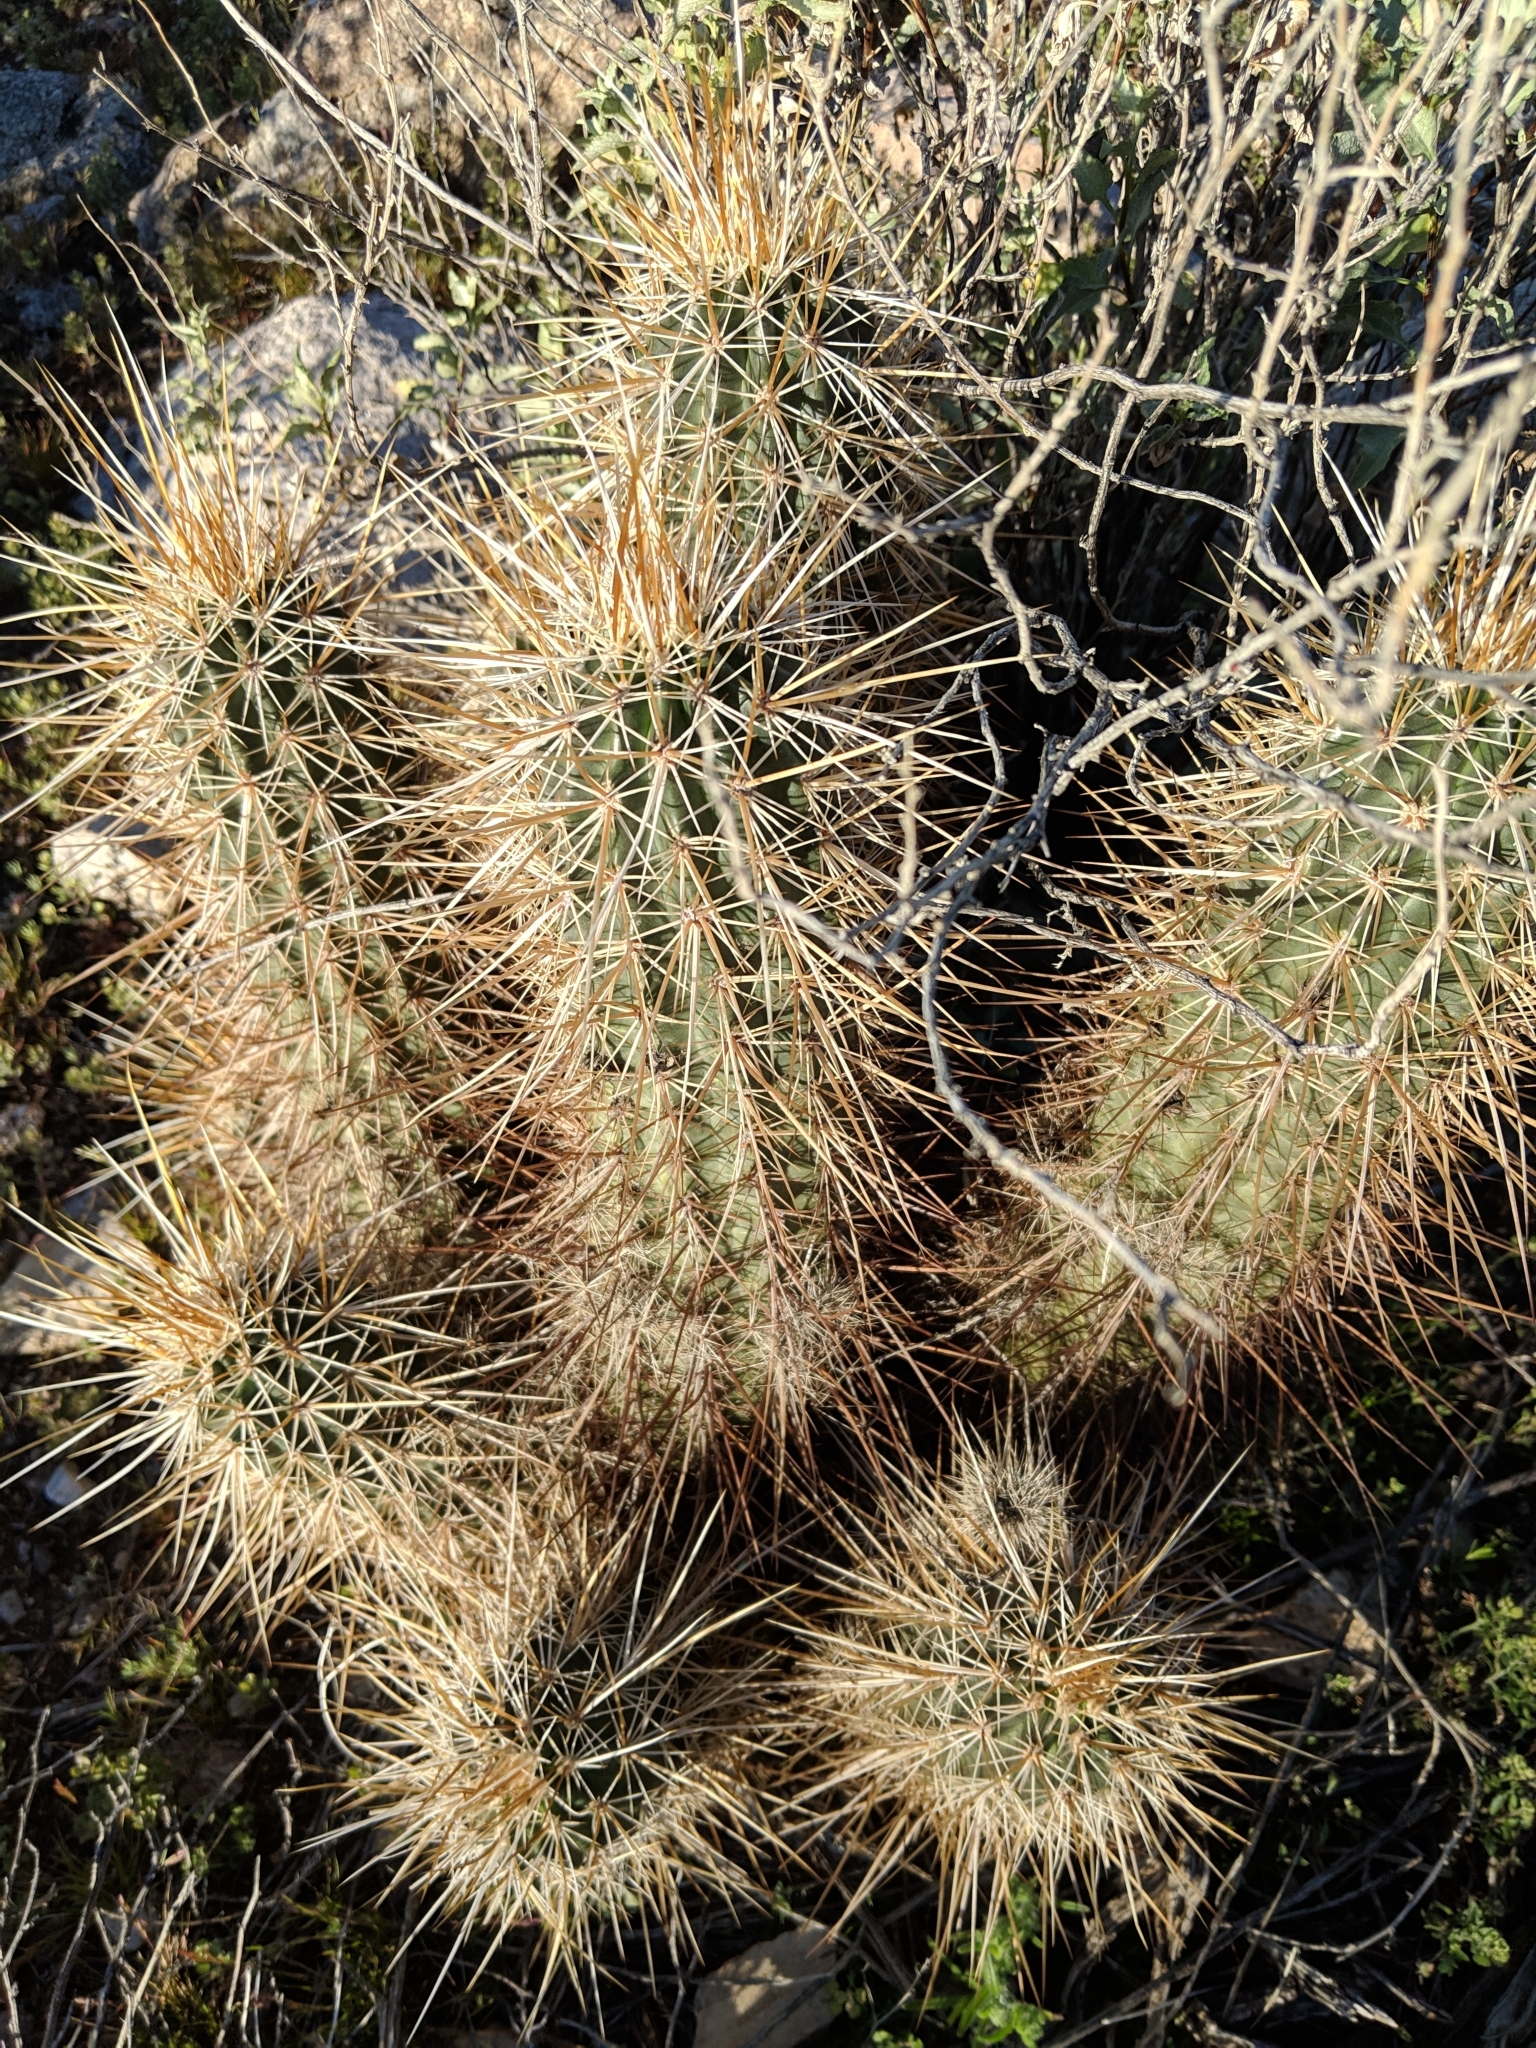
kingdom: Plantae
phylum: Tracheophyta
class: Magnoliopsida
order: Caryophyllales
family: Cactaceae
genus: Echinocereus
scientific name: Echinocereus engelmannii
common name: Engelmann's hedgehog cactus
